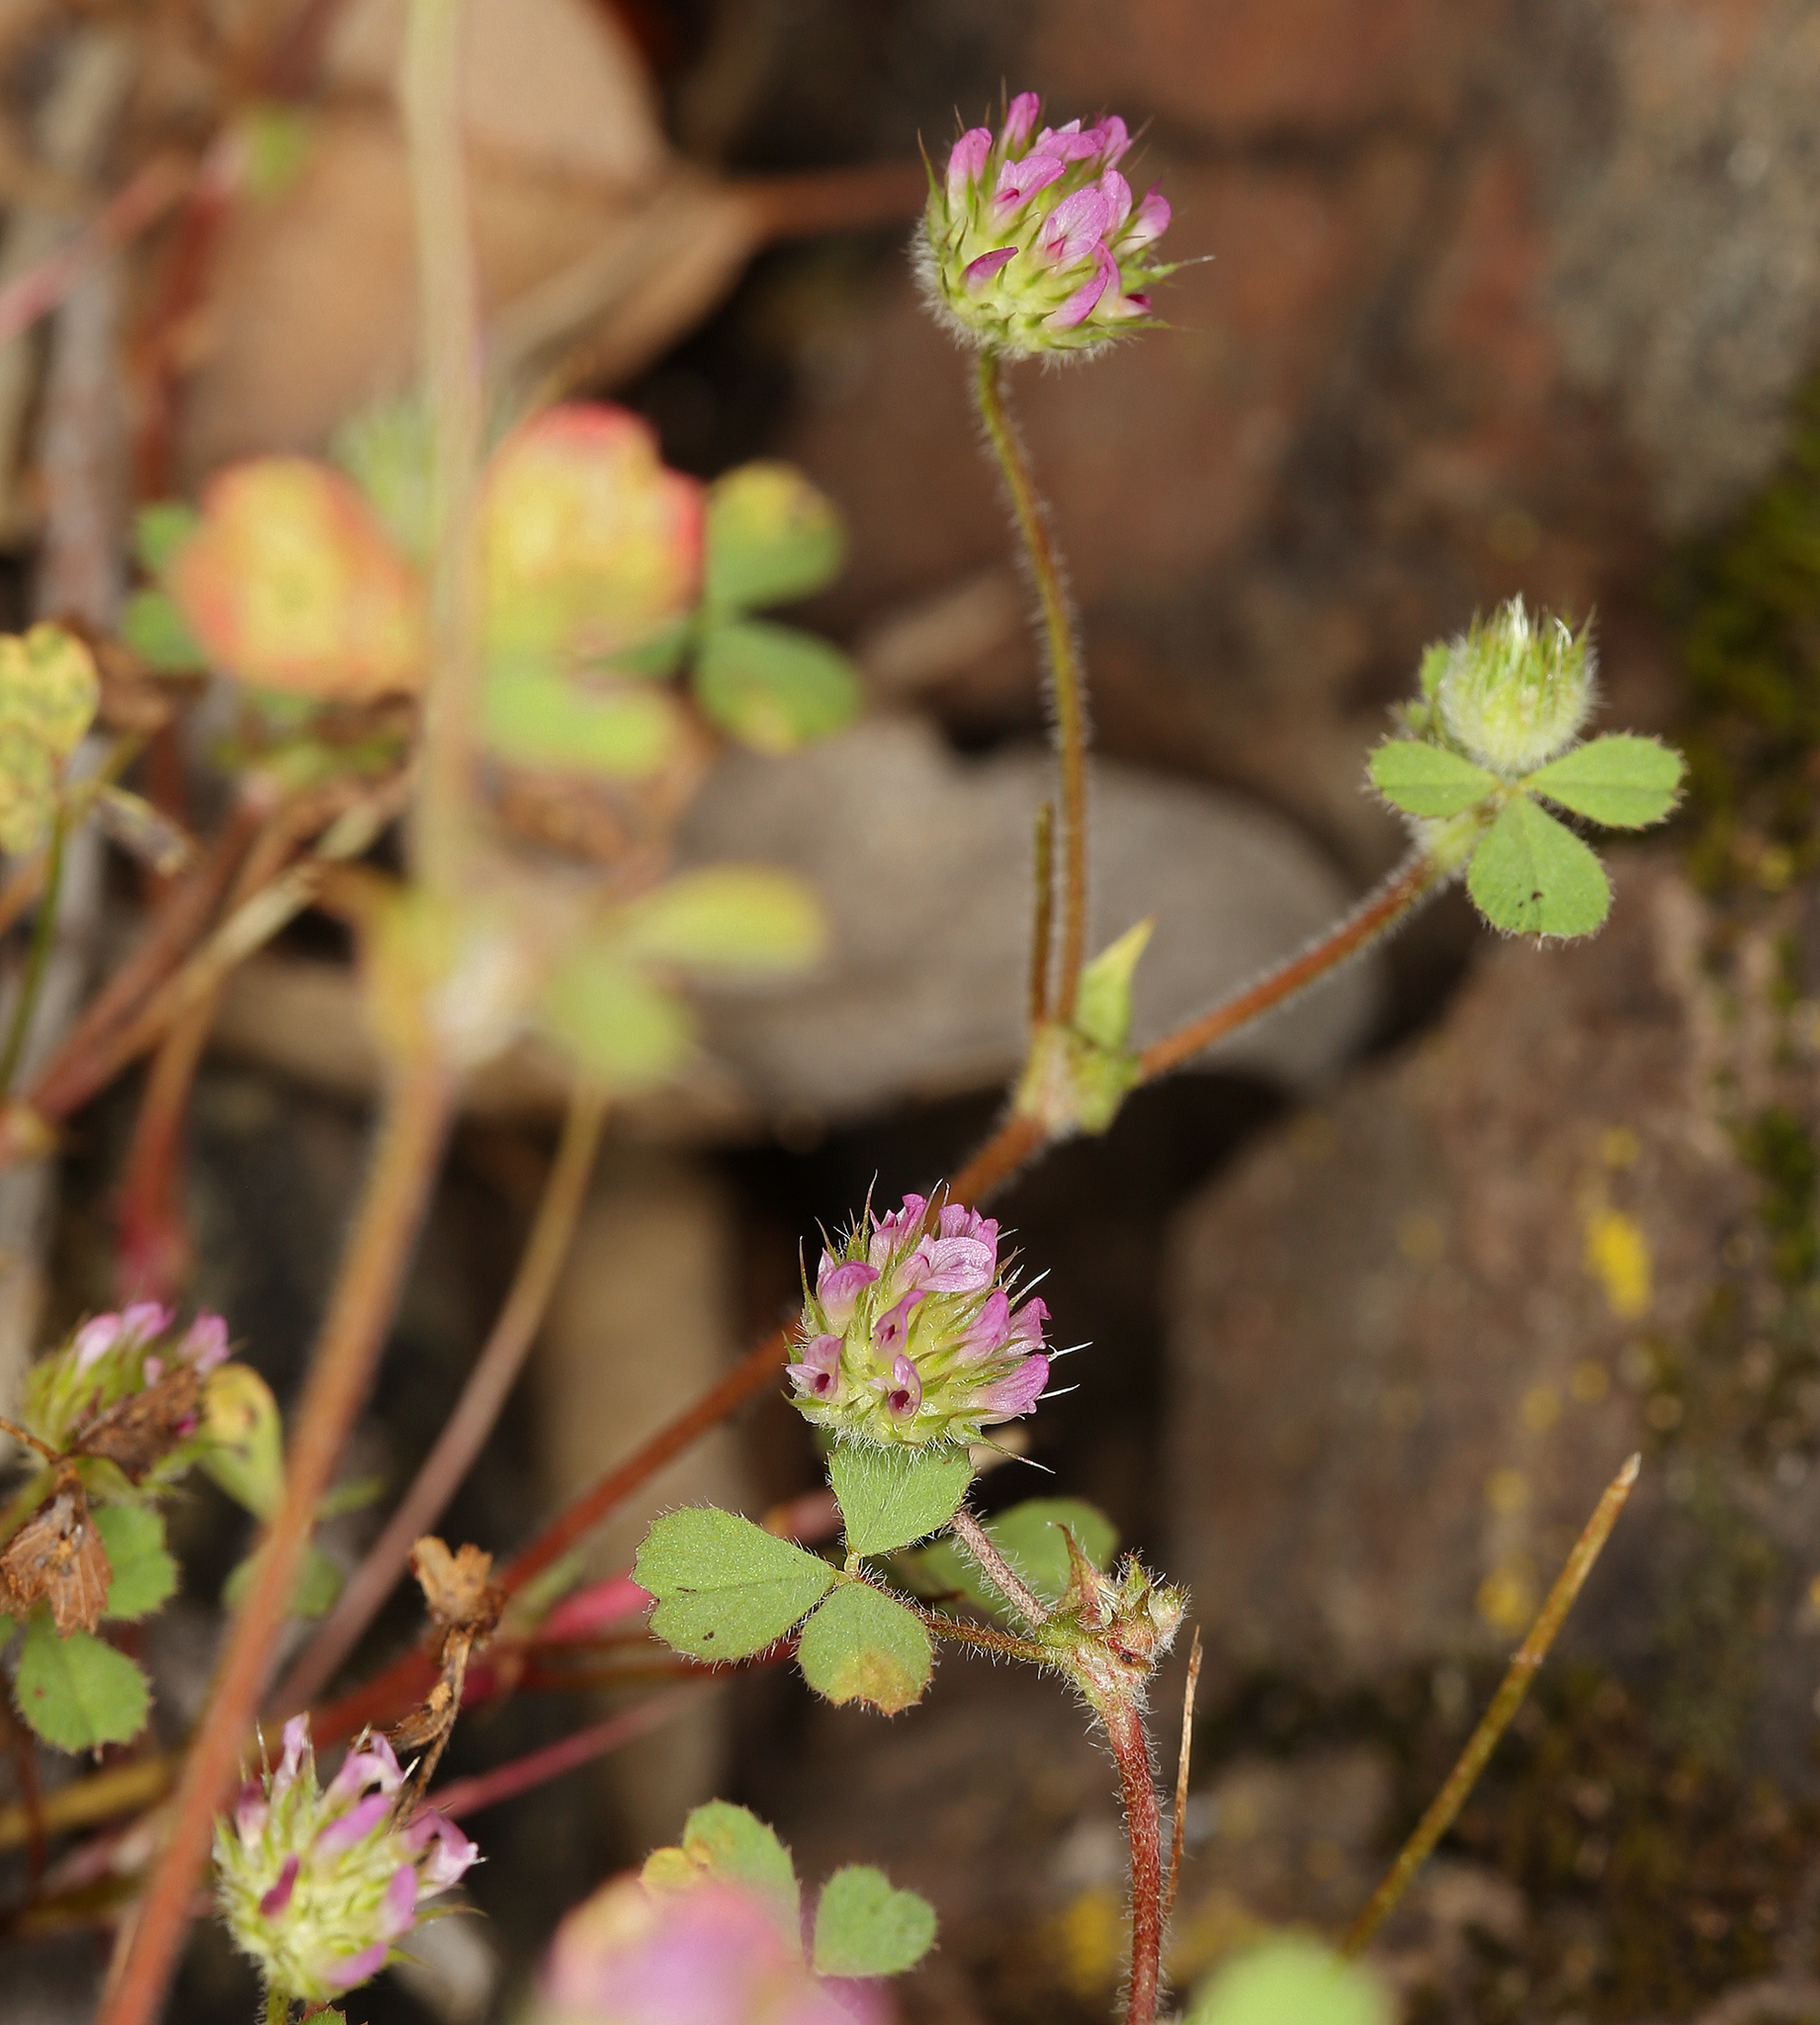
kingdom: Plantae
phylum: Tracheophyta
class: Magnoliopsida
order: Fabales
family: Fabaceae
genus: Trifolium
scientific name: Trifolium microcephalum
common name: Maiden clover
